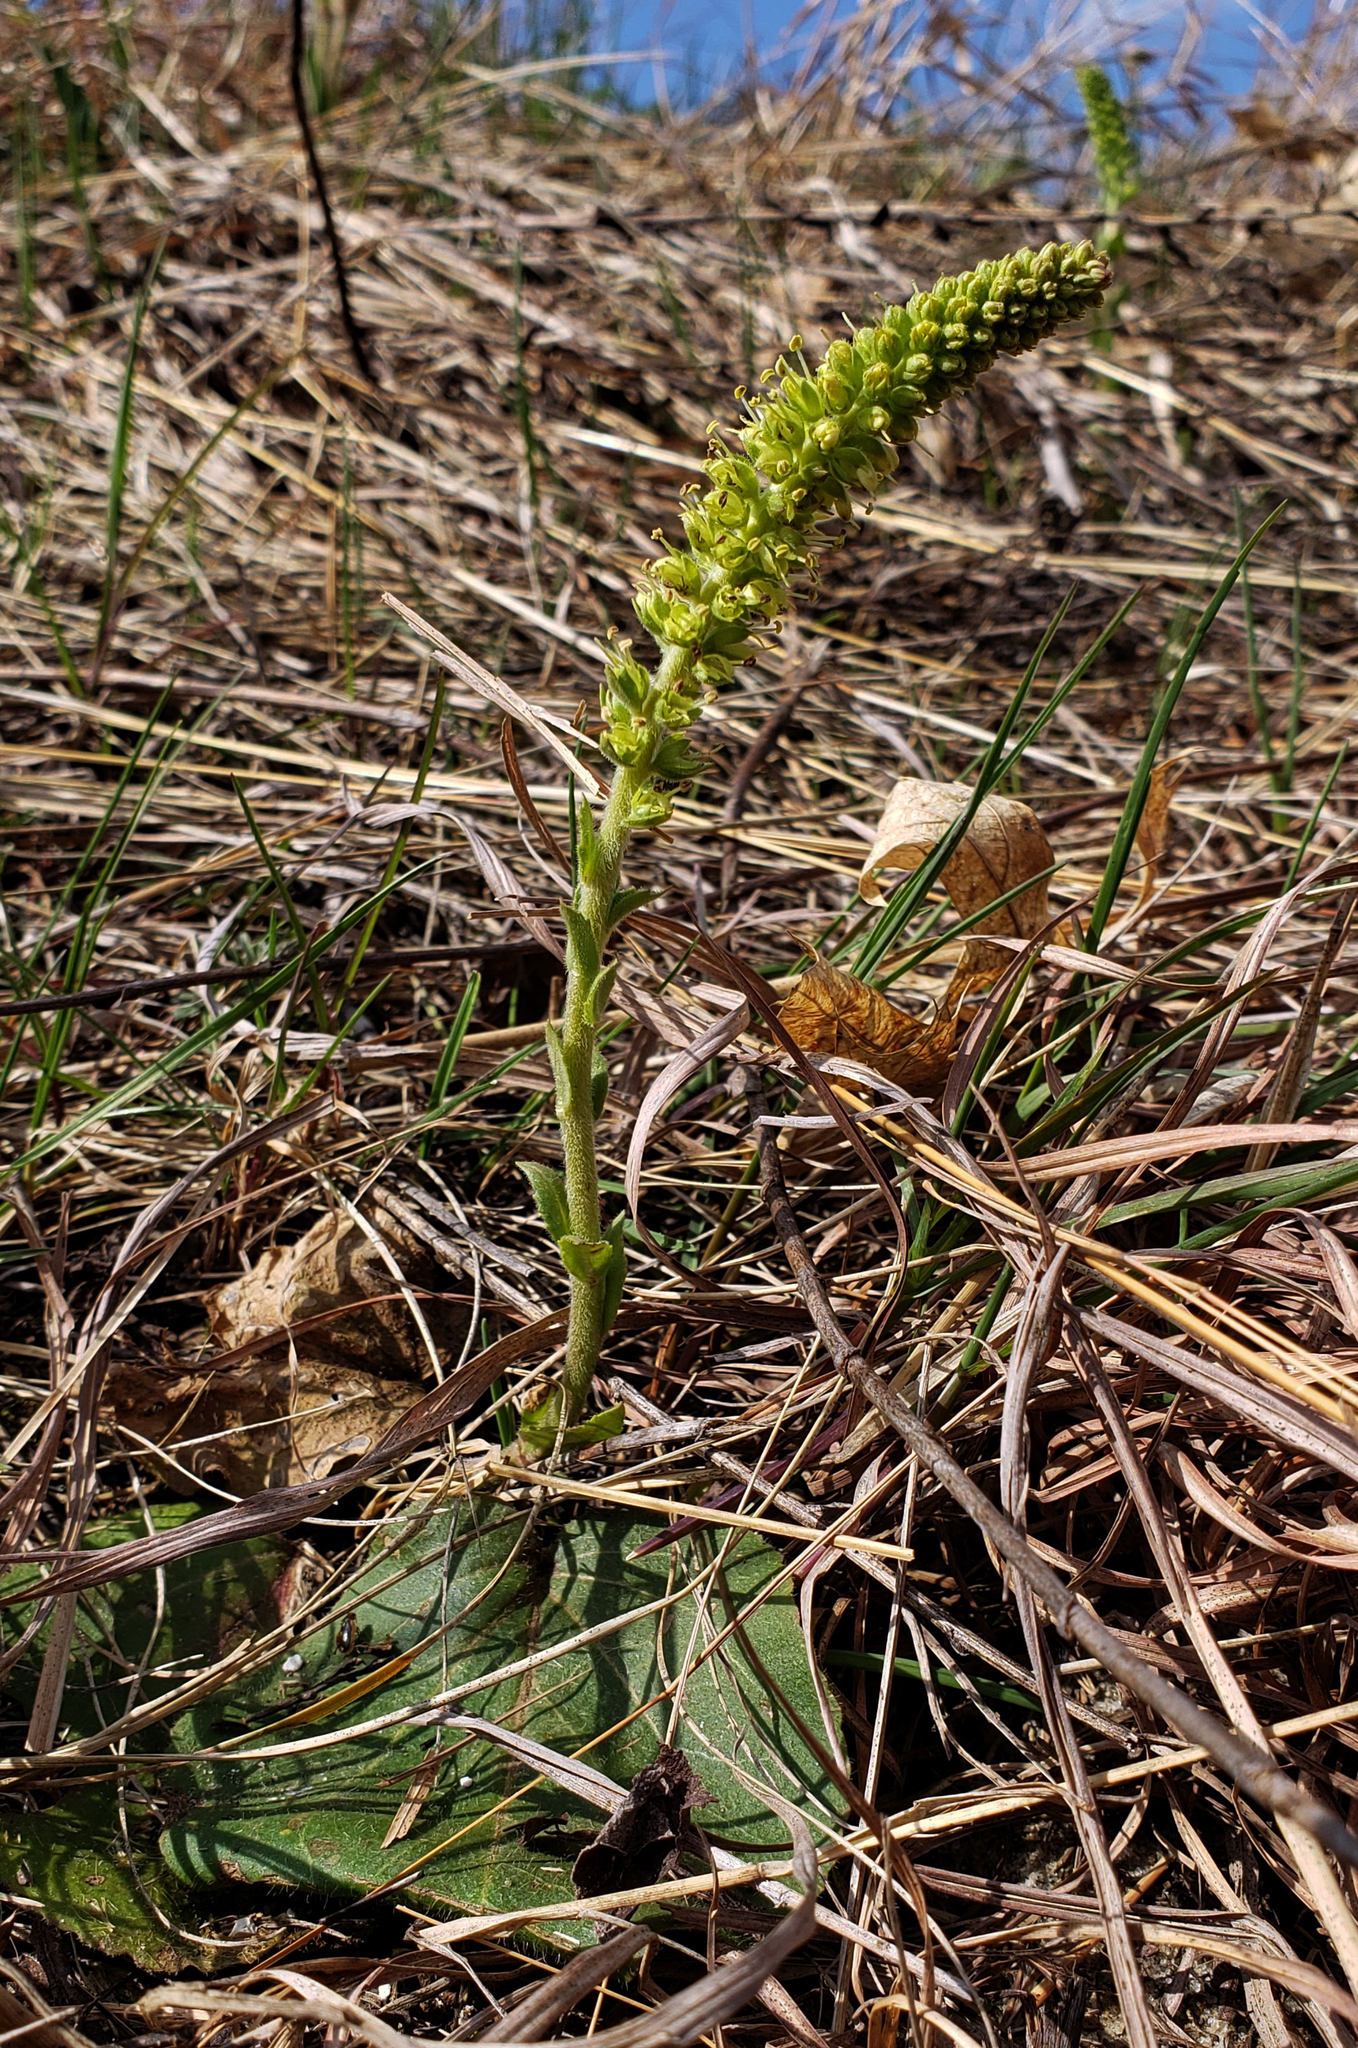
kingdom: Plantae
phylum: Tracheophyta
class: Magnoliopsida
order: Lamiales
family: Plantaginaceae
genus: Synthyris
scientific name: Synthyris bullii
